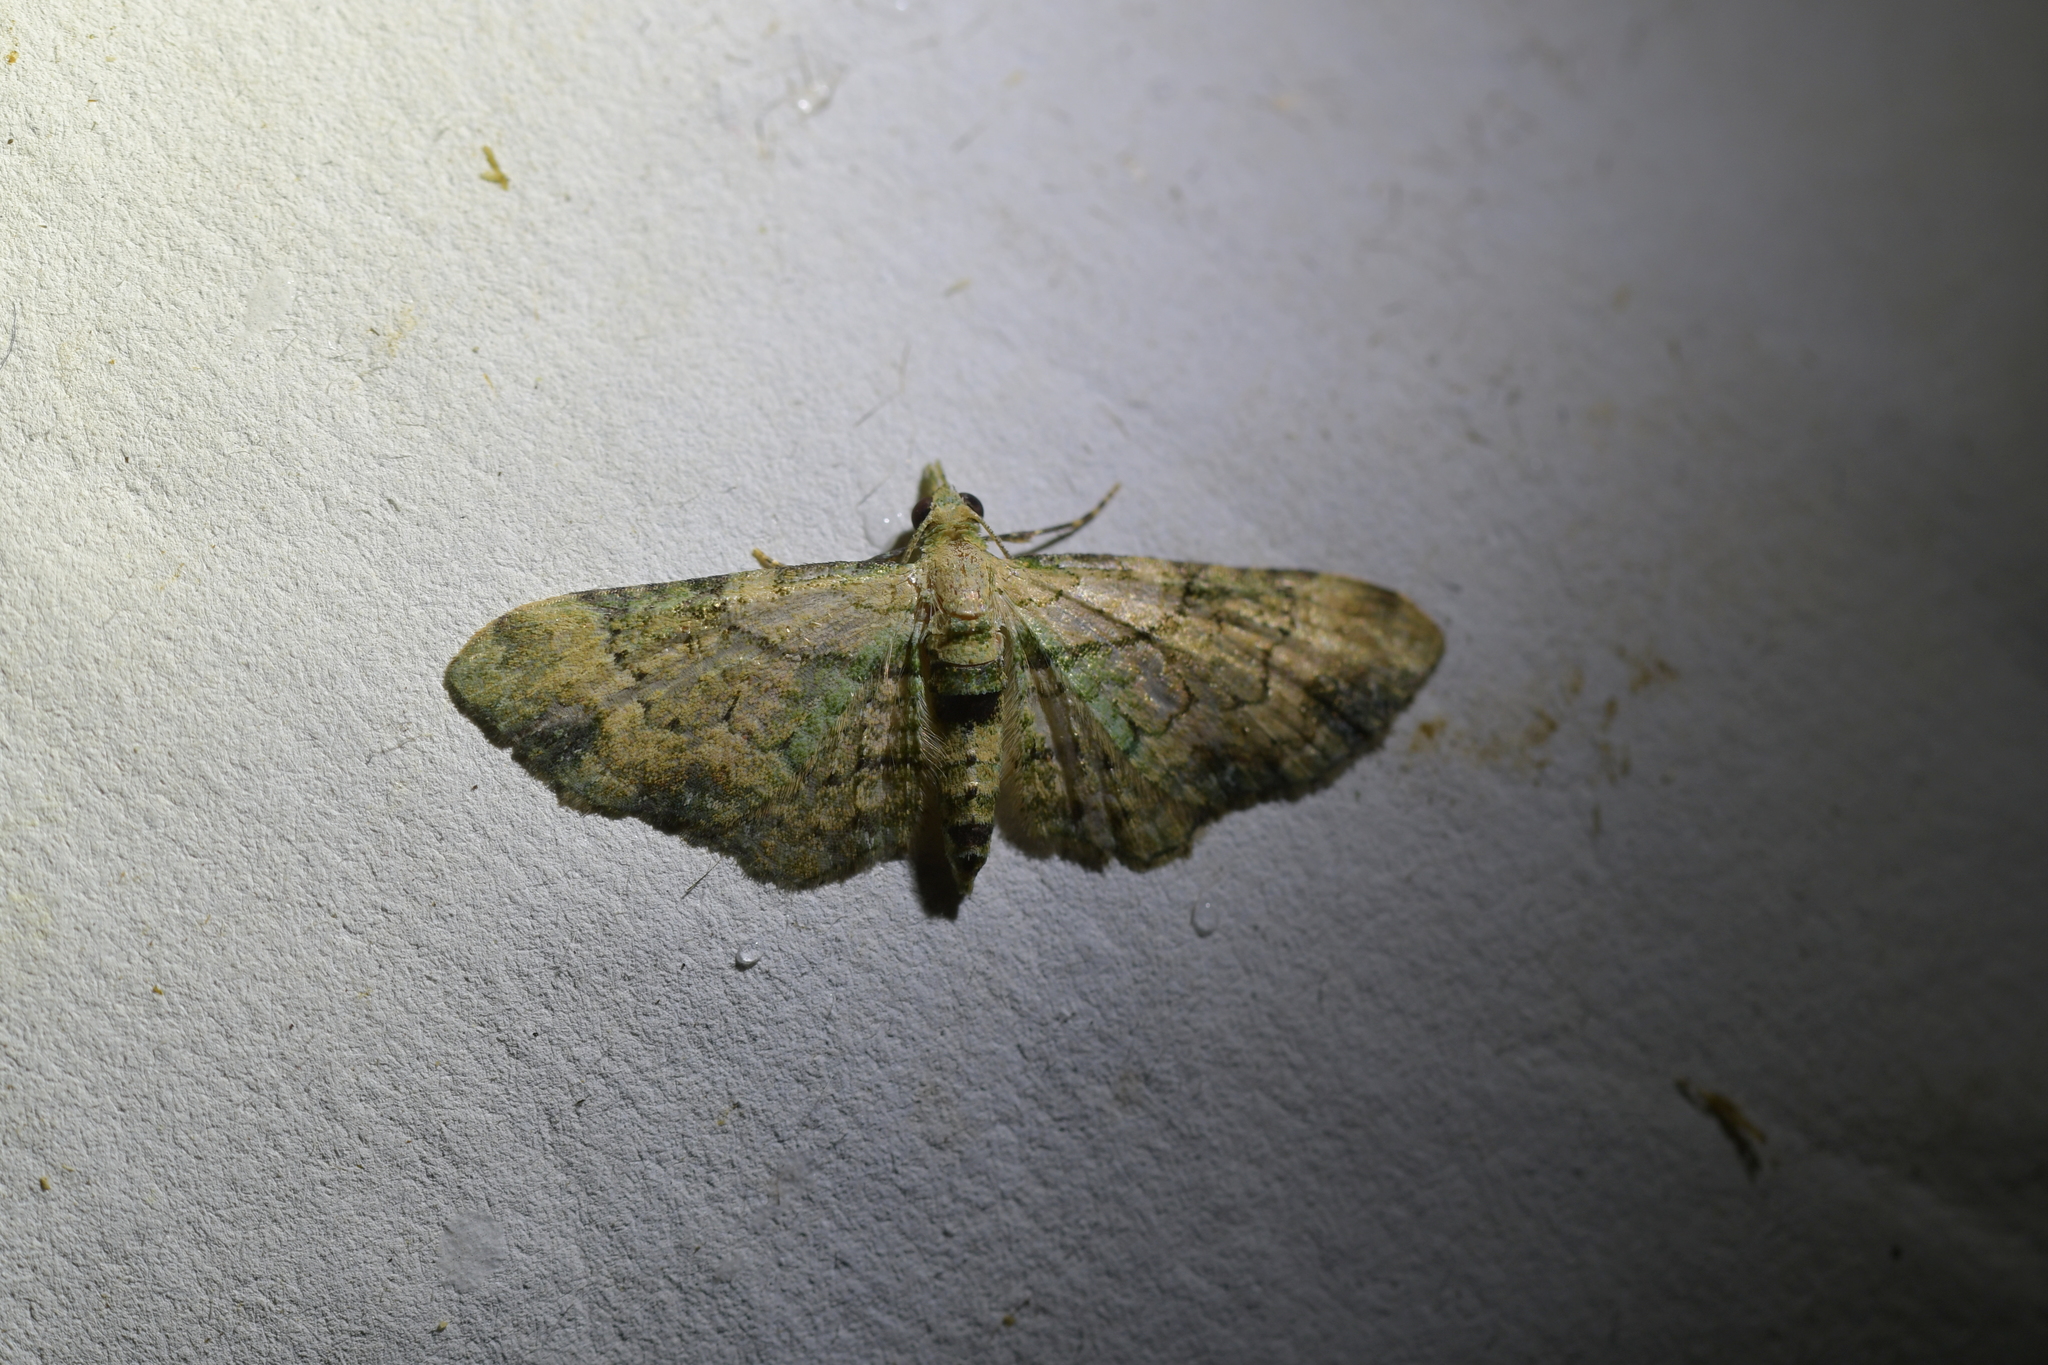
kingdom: Animalia
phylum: Arthropoda
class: Insecta
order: Lepidoptera
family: Geometridae
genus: Chloroclystis
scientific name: Chloroclystis
